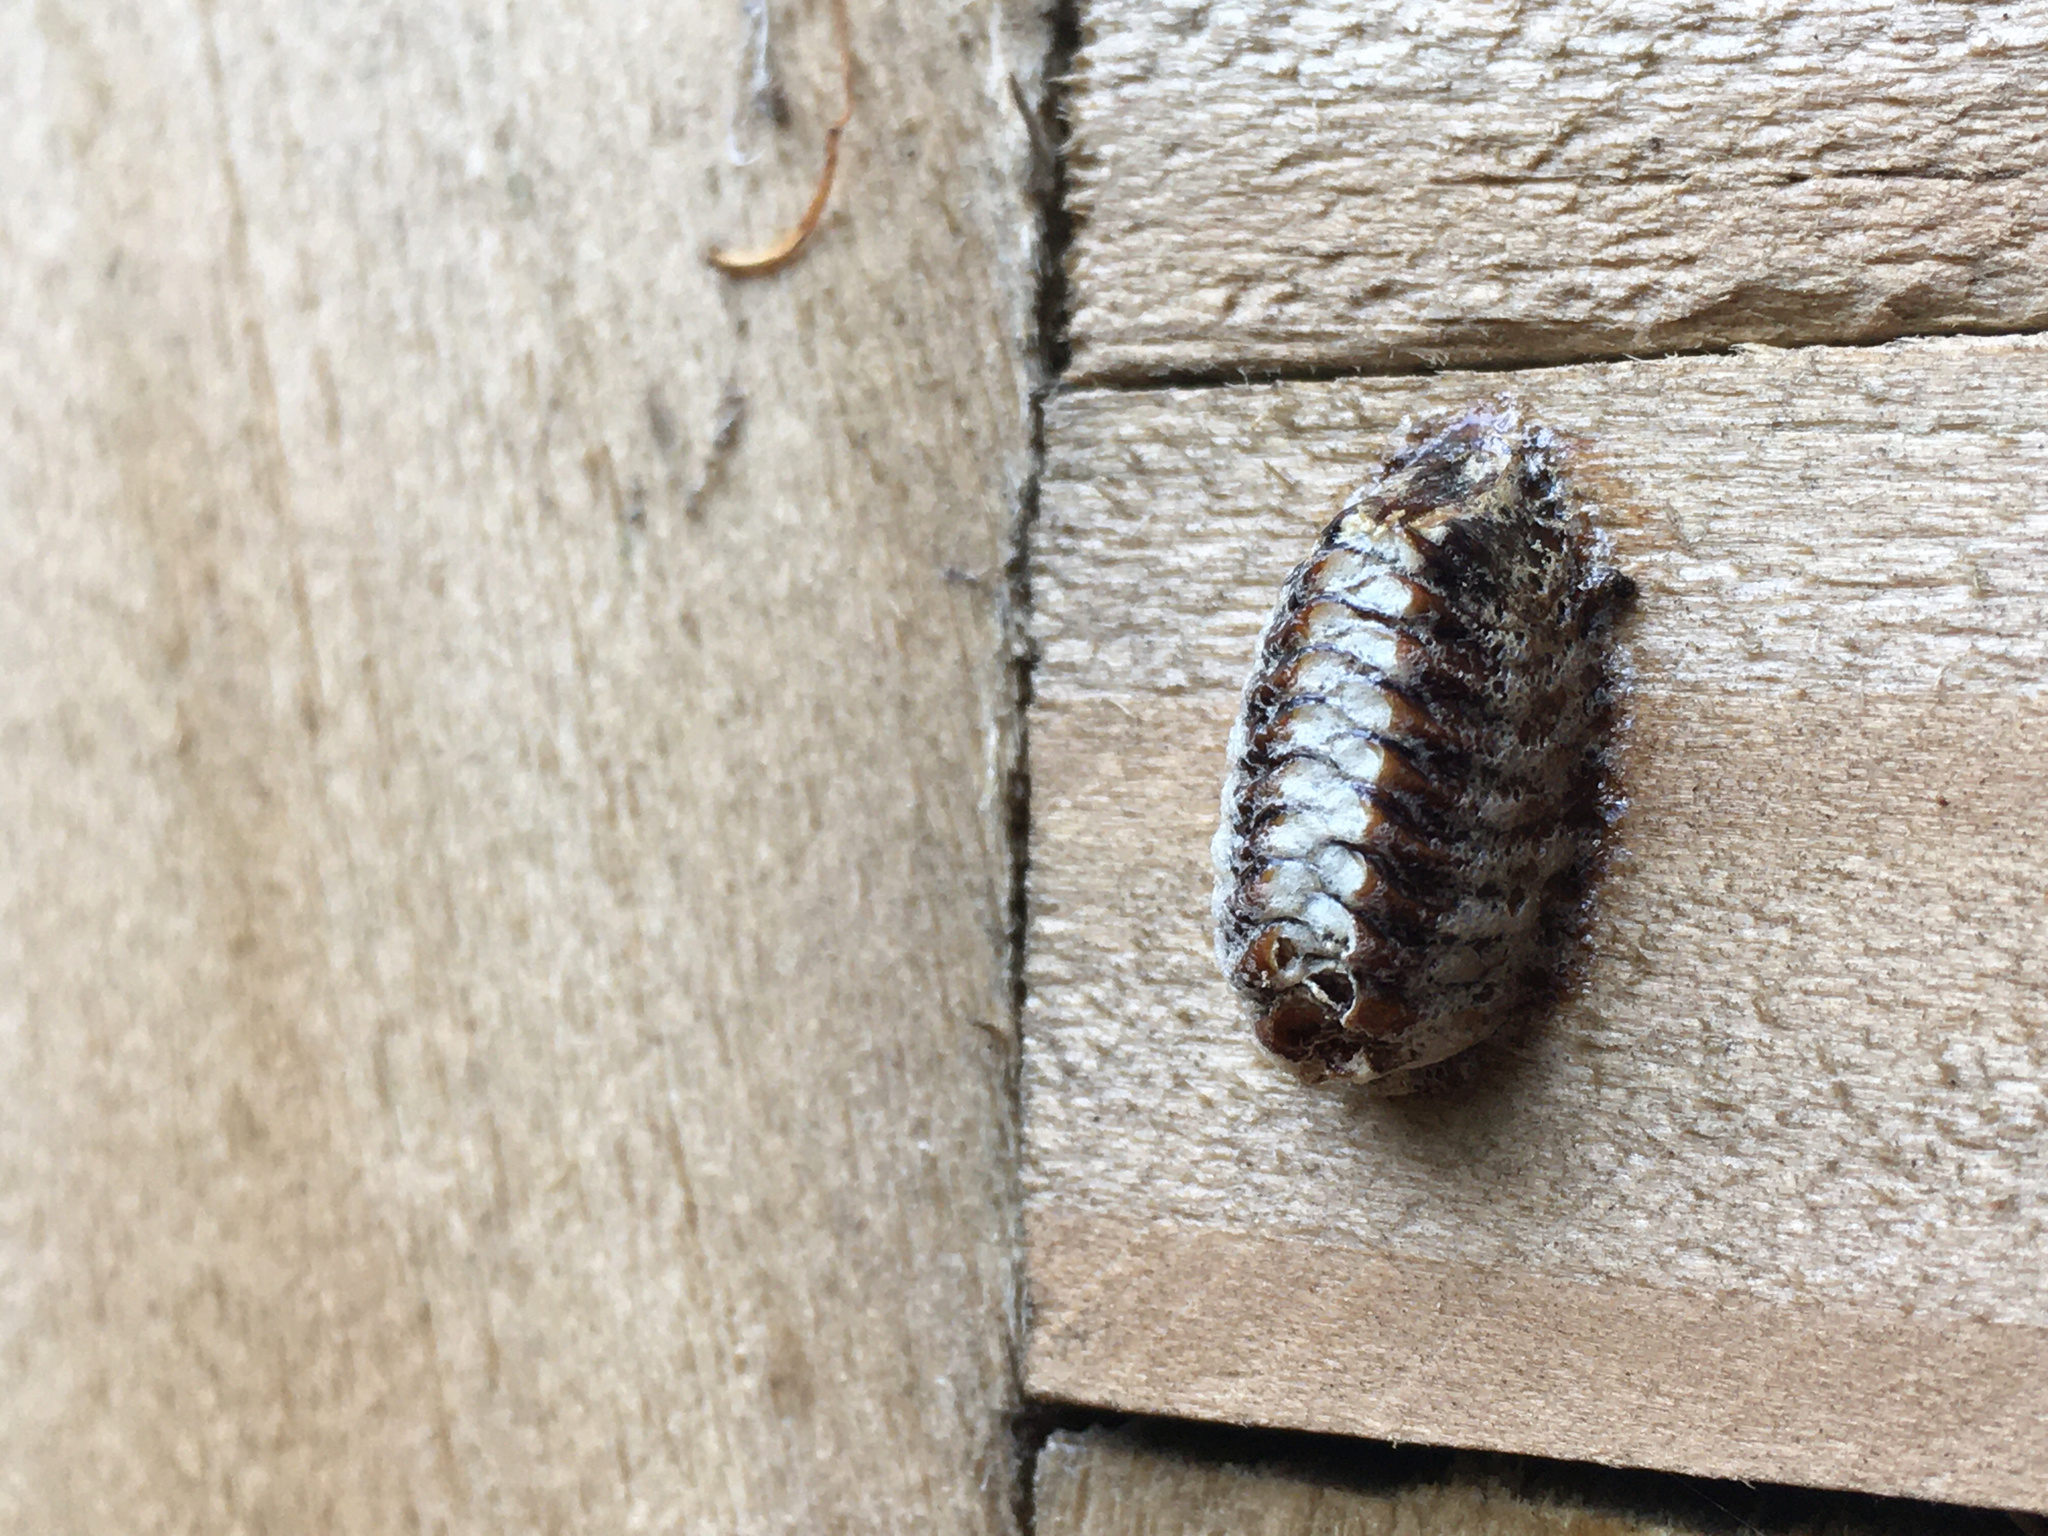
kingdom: Animalia
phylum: Arthropoda
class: Insecta
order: Mantodea
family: Mantidae
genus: Orthodera
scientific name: Orthodera novaezealandiae
